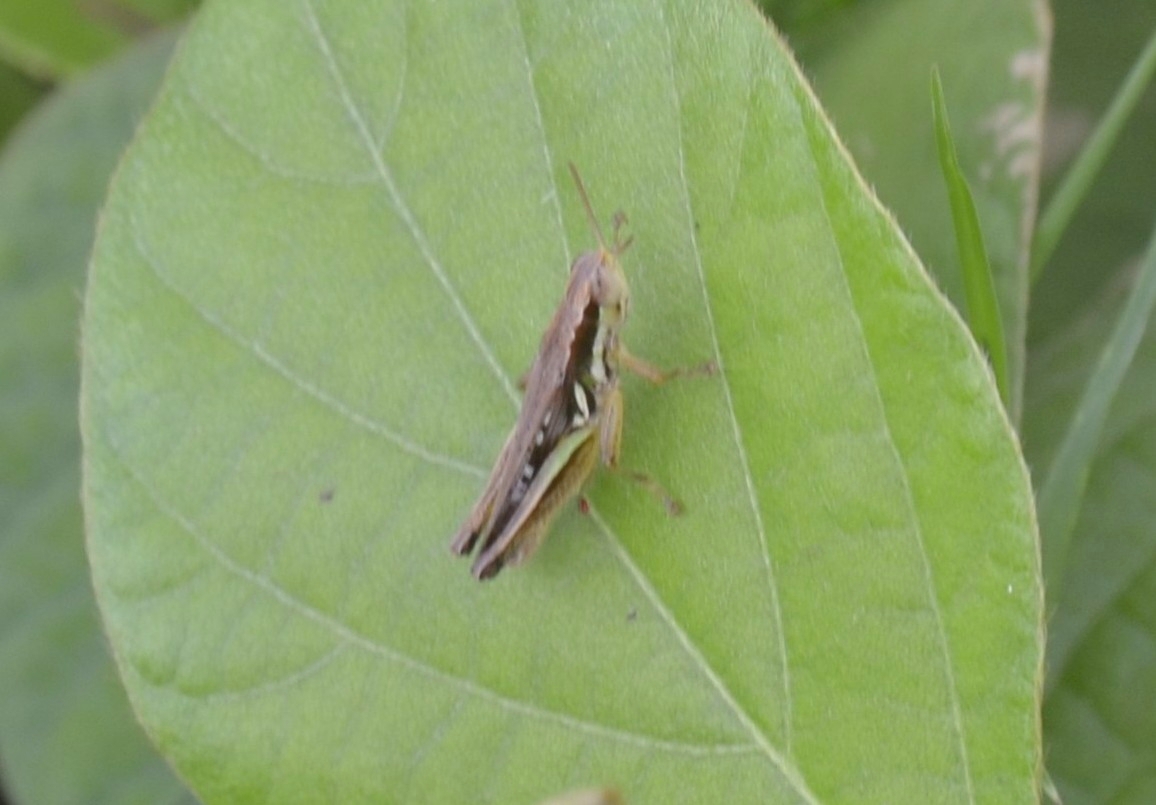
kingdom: Animalia
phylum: Arthropoda
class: Insecta
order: Orthoptera
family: Acrididae
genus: Spathosternum
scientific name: Spathosternum prasiniferum
